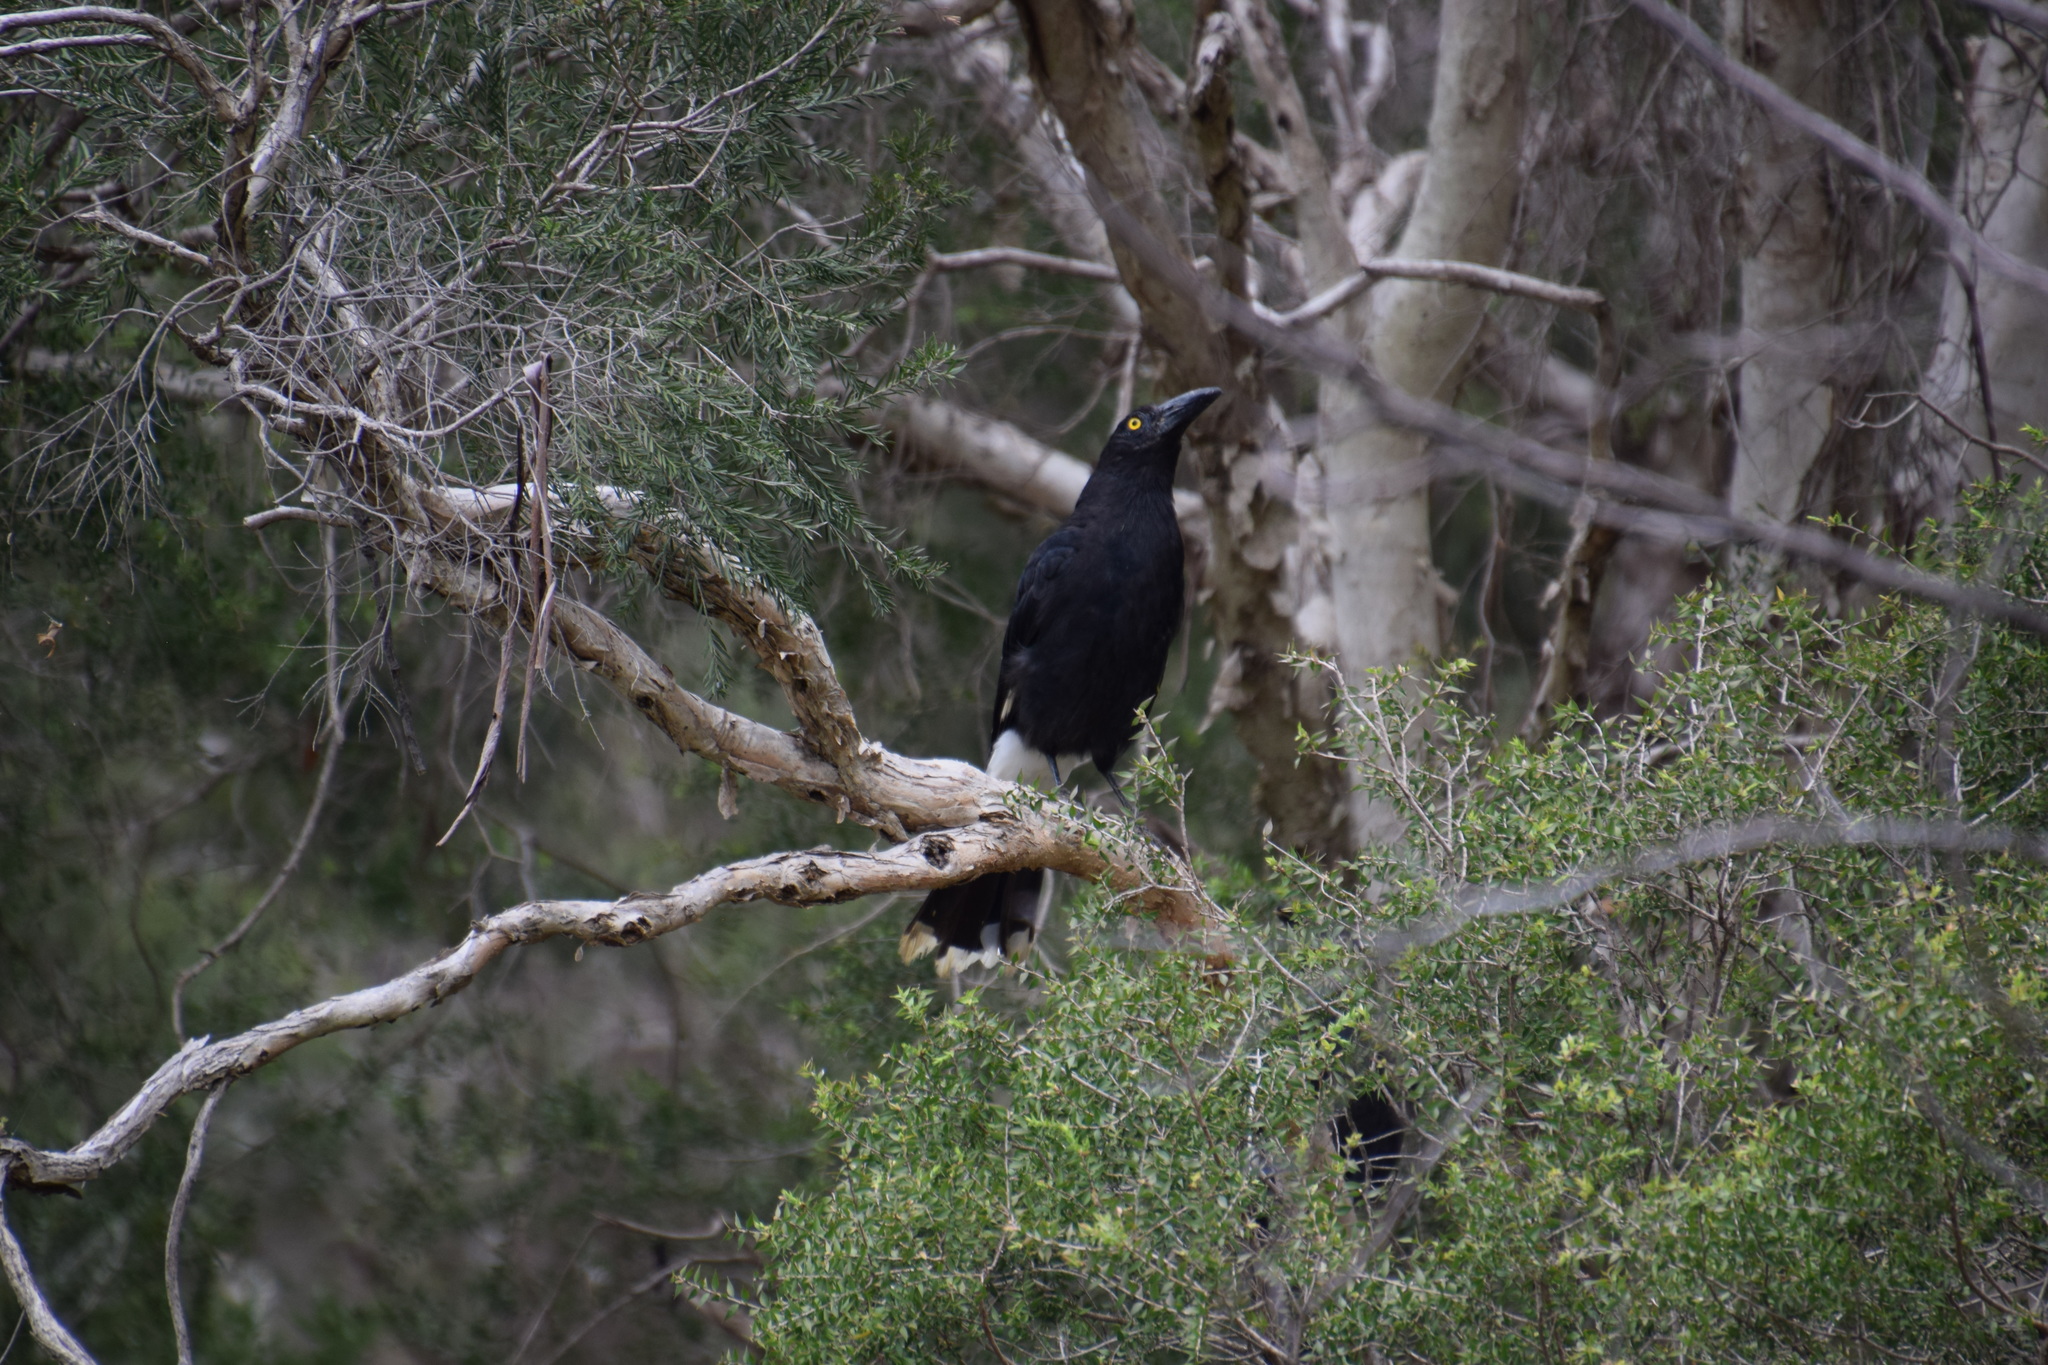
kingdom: Animalia
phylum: Chordata
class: Aves
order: Passeriformes
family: Cracticidae
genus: Strepera
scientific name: Strepera graculina
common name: Pied currawong
